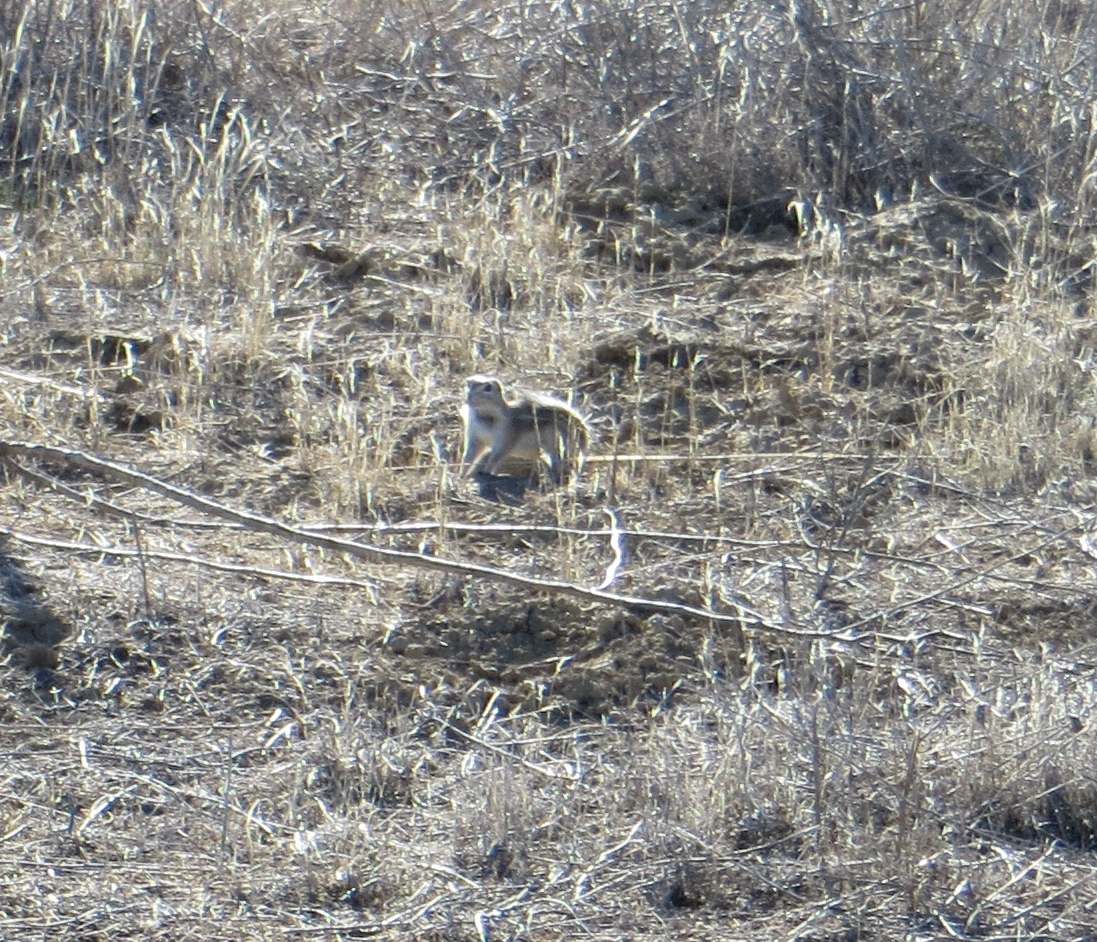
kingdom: Animalia
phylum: Chordata
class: Mammalia
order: Rodentia
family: Sciuridae
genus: Ammospermophilus
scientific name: Ammospermophilus nelsoni
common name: Nelson's antelope squirrel
